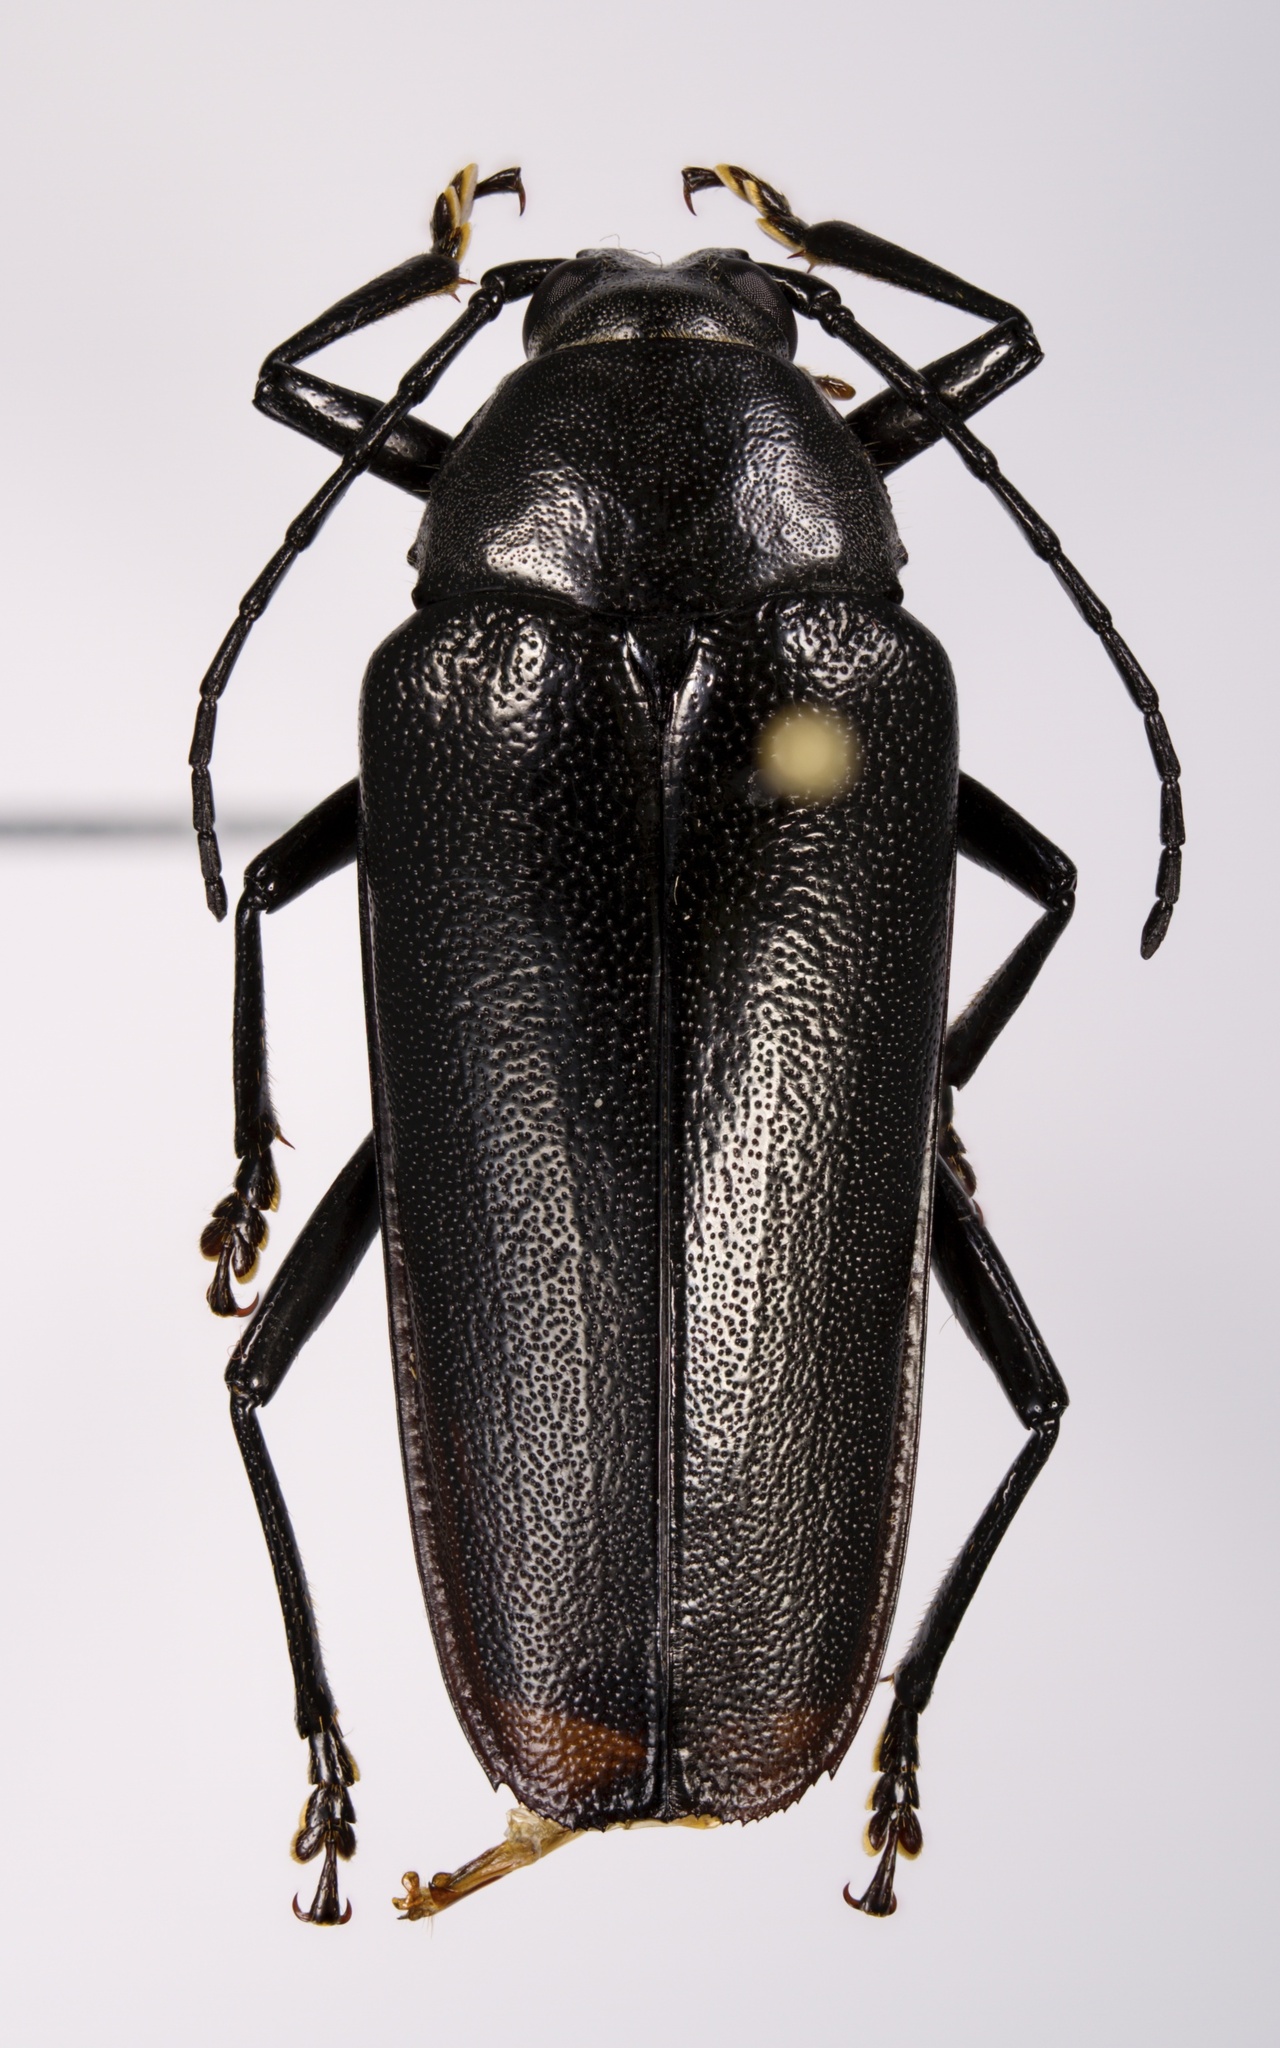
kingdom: Animalia
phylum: Arthropoda
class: Insecta
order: Coleoptera
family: Cerambycidae
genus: Sphenostethus
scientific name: Sphenostethus taslei
